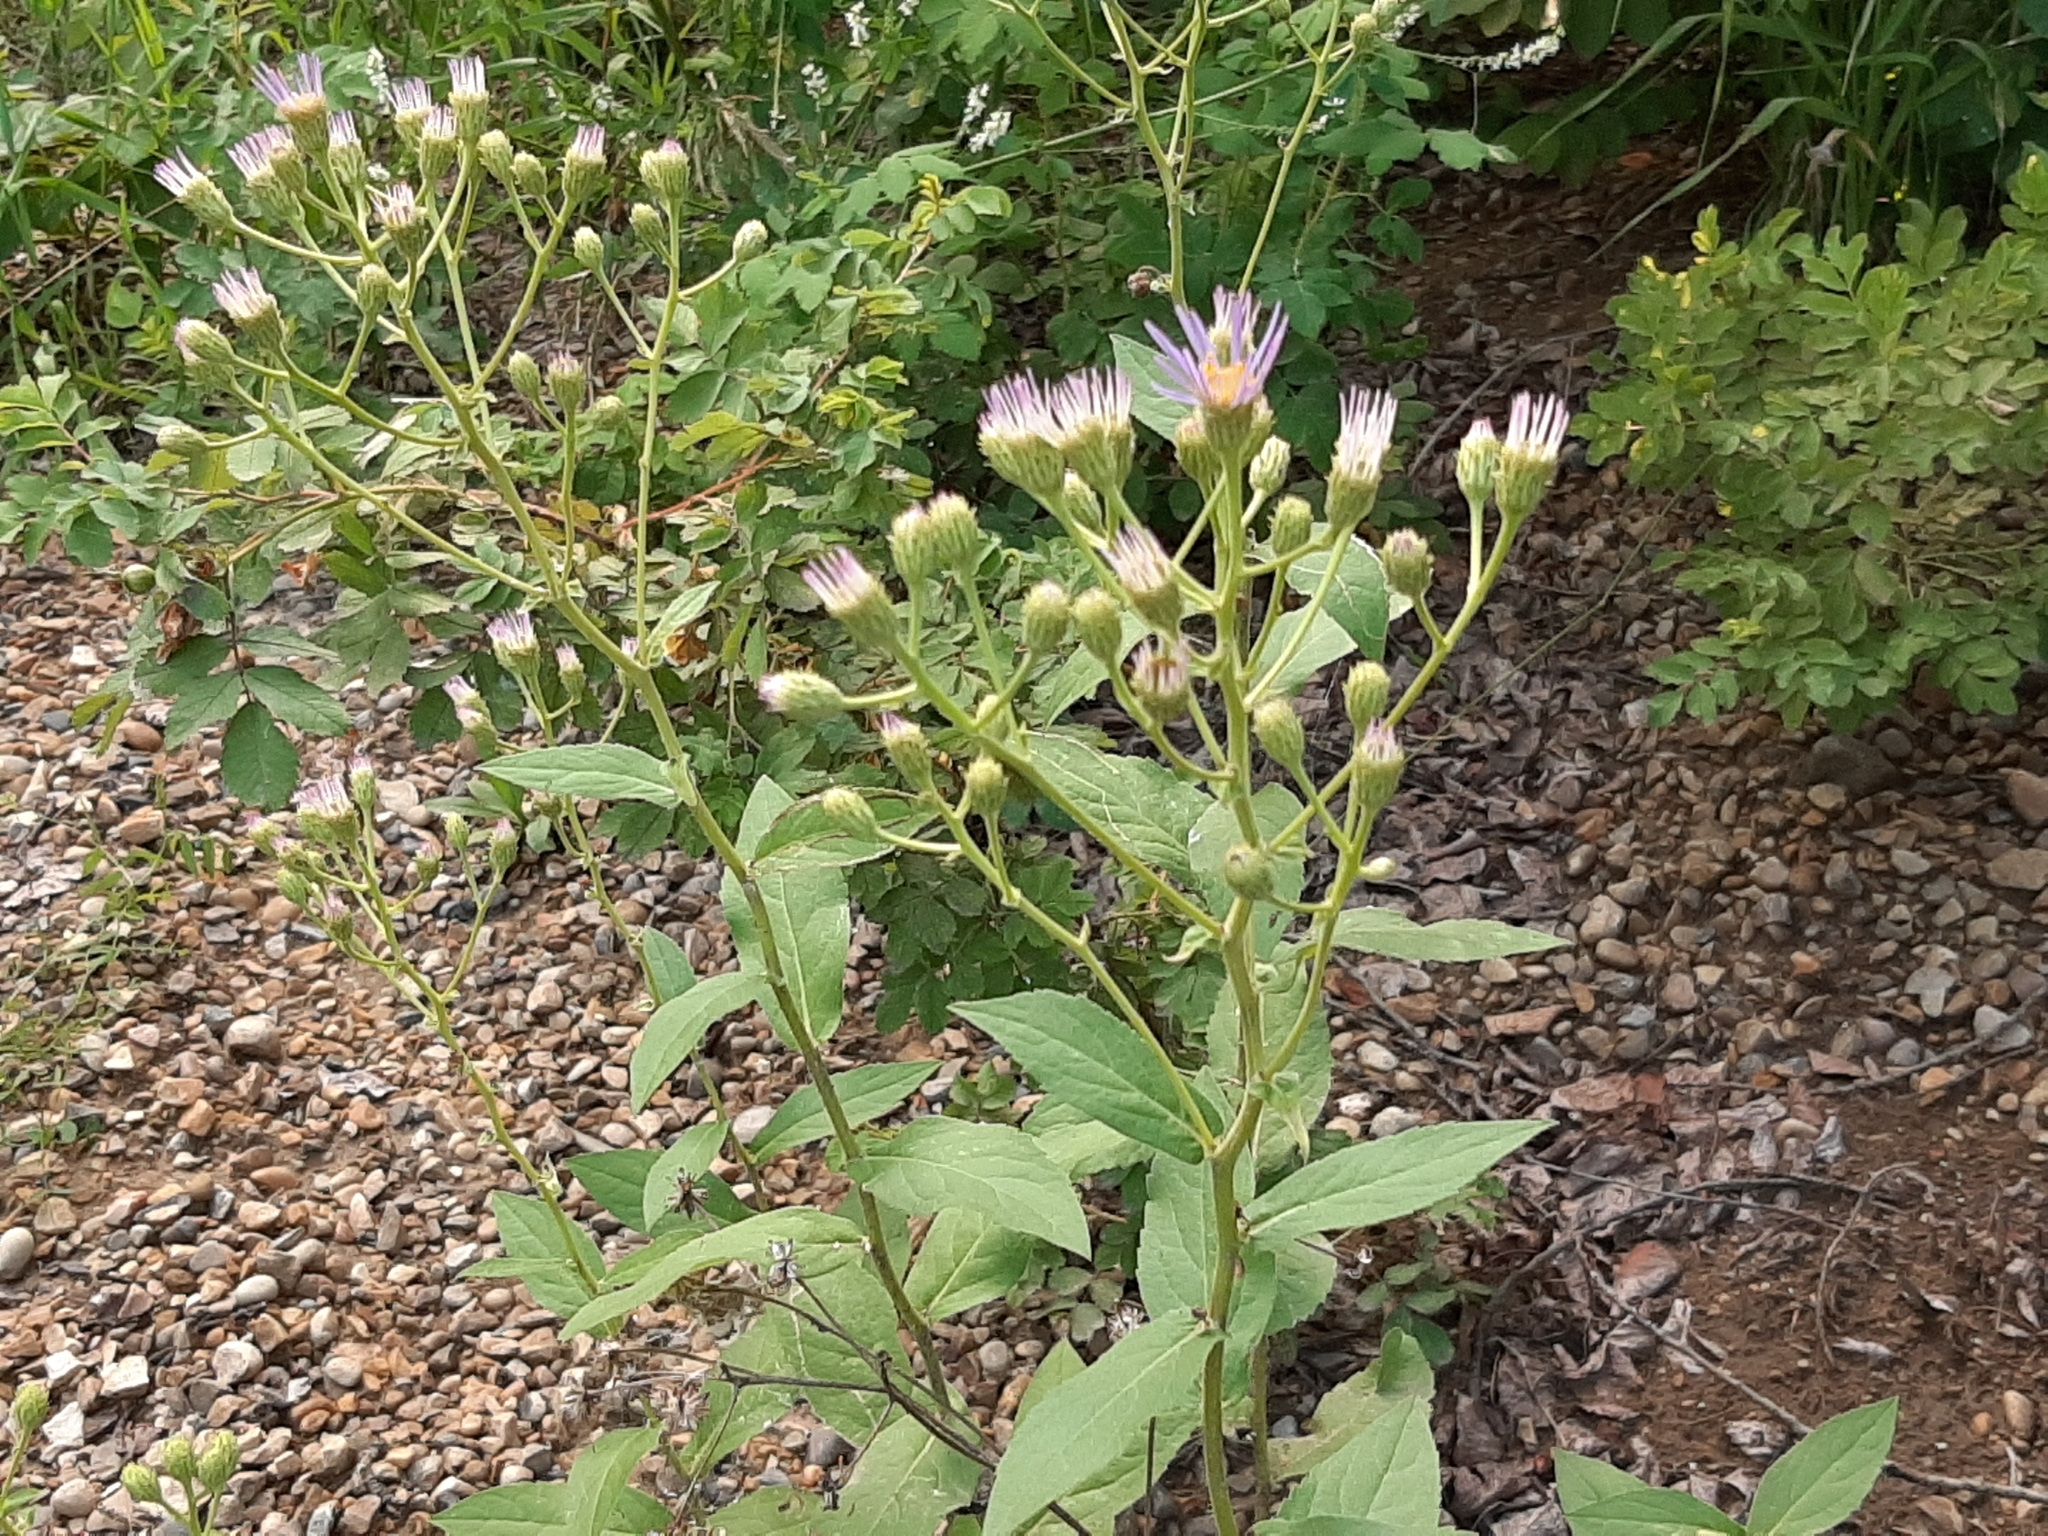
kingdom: Plantae
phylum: Tracheophyta
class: Magnoliopsida
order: Asterales
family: Asteraceae
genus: Eurybia
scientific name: Eurybia conspicua
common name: Showy aster
